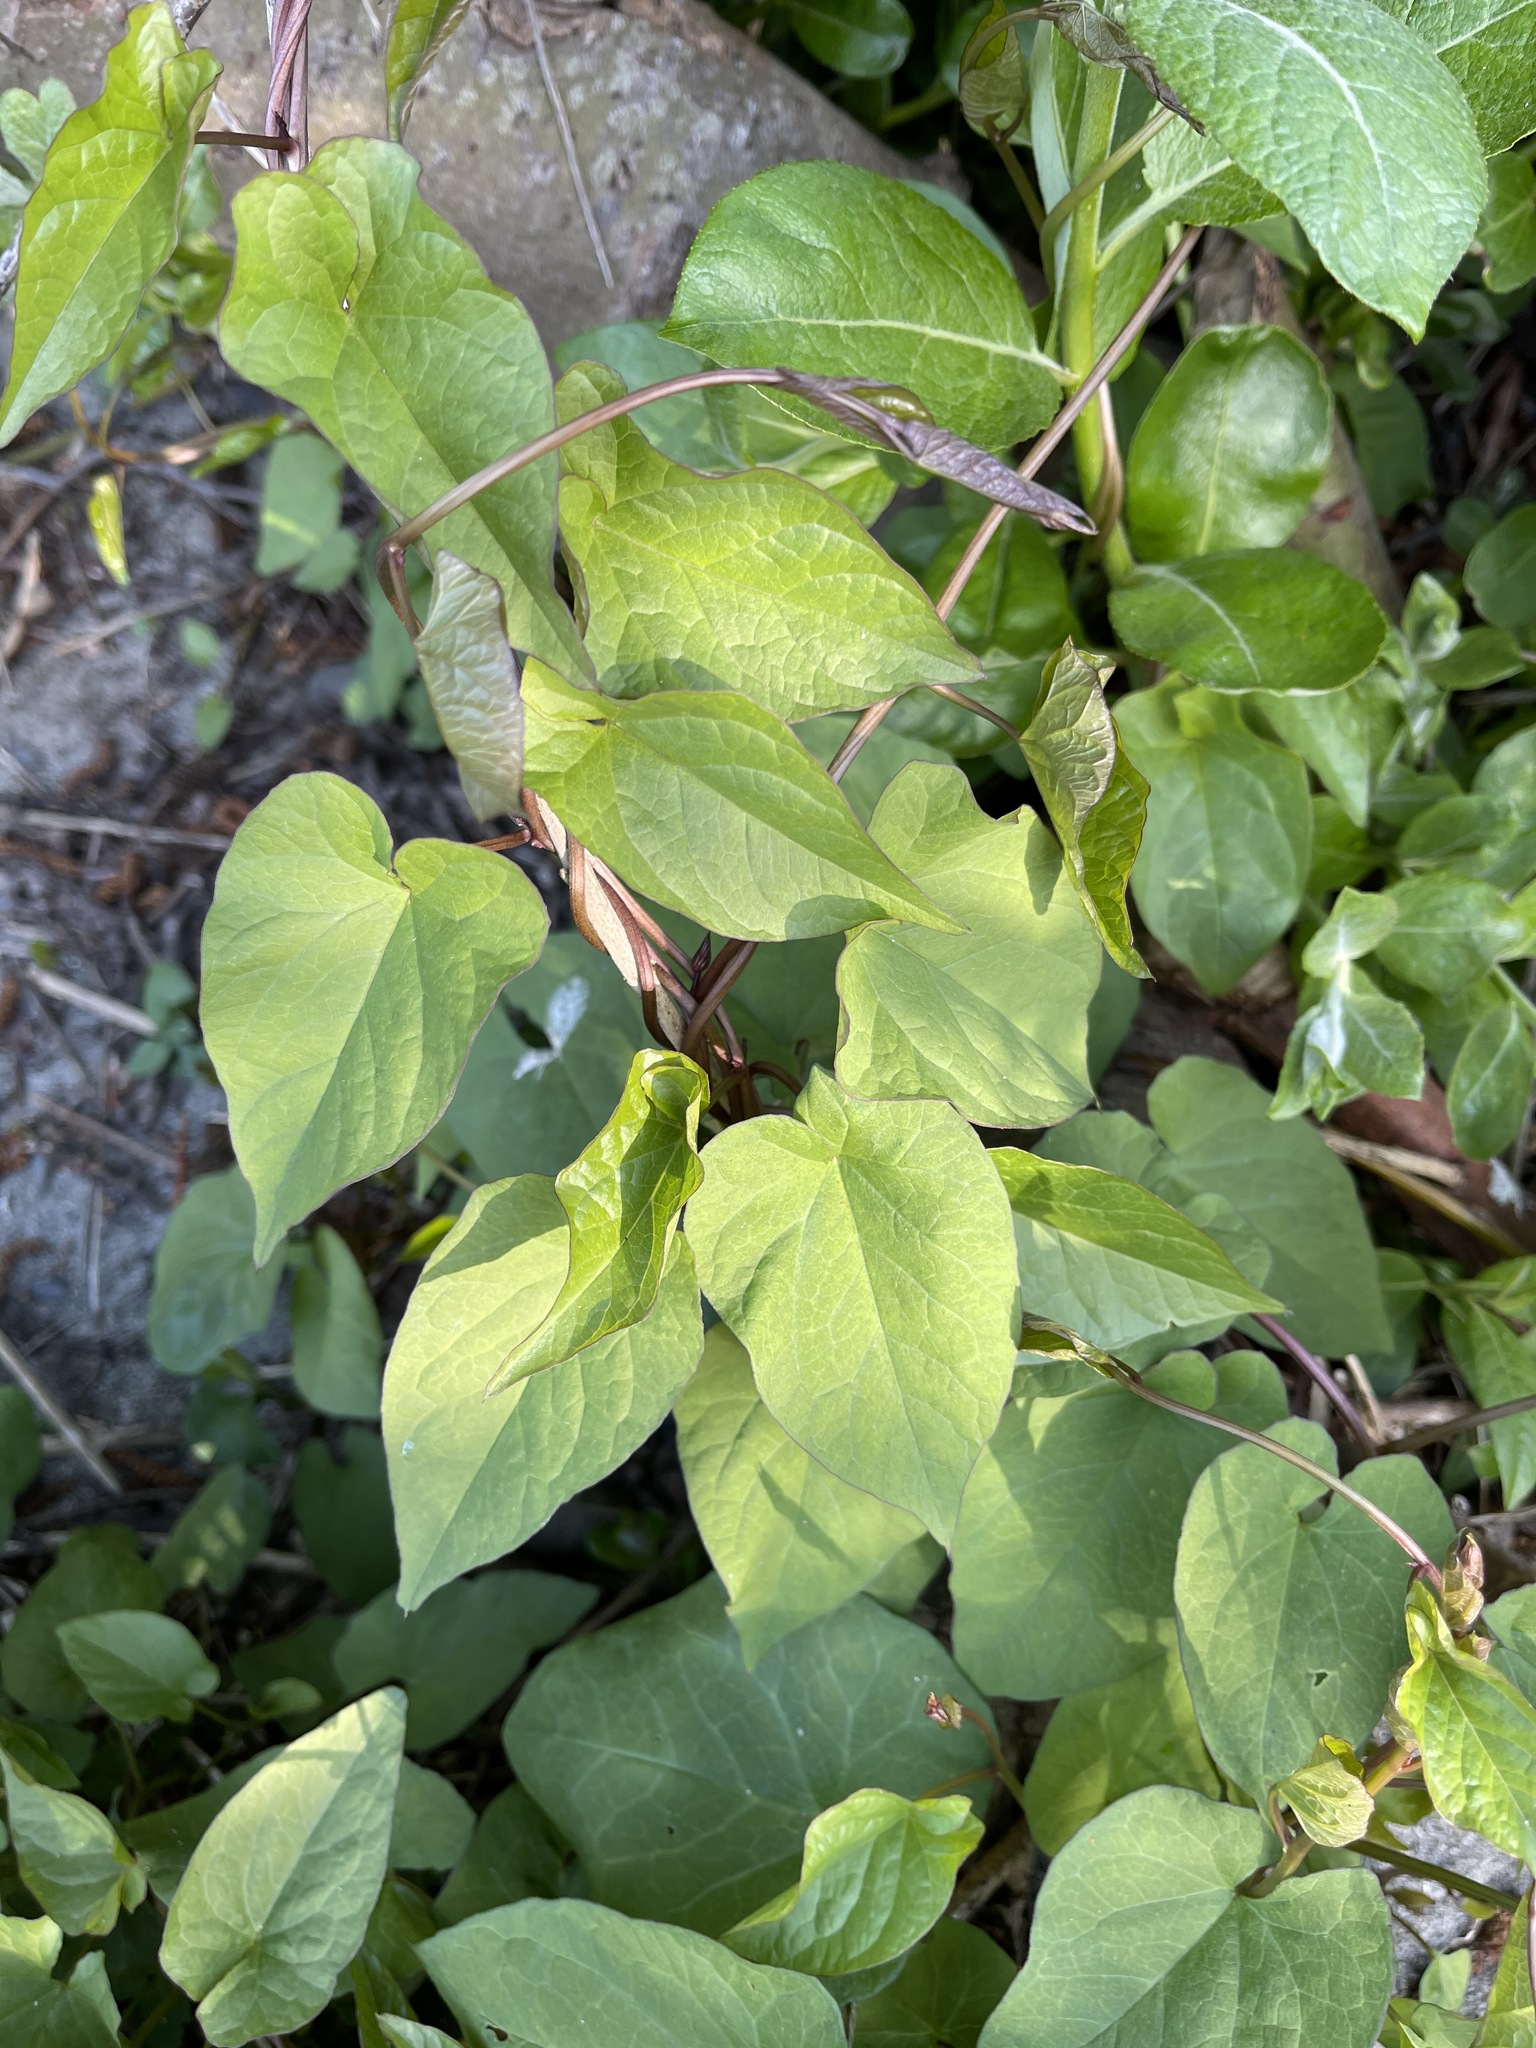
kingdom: Plantae
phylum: Tracheophyta
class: Magnoliopsida
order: Solanales
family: Convolvulaceae
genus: Calystegia
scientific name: Calystegia silvatica
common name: Large bindweed
